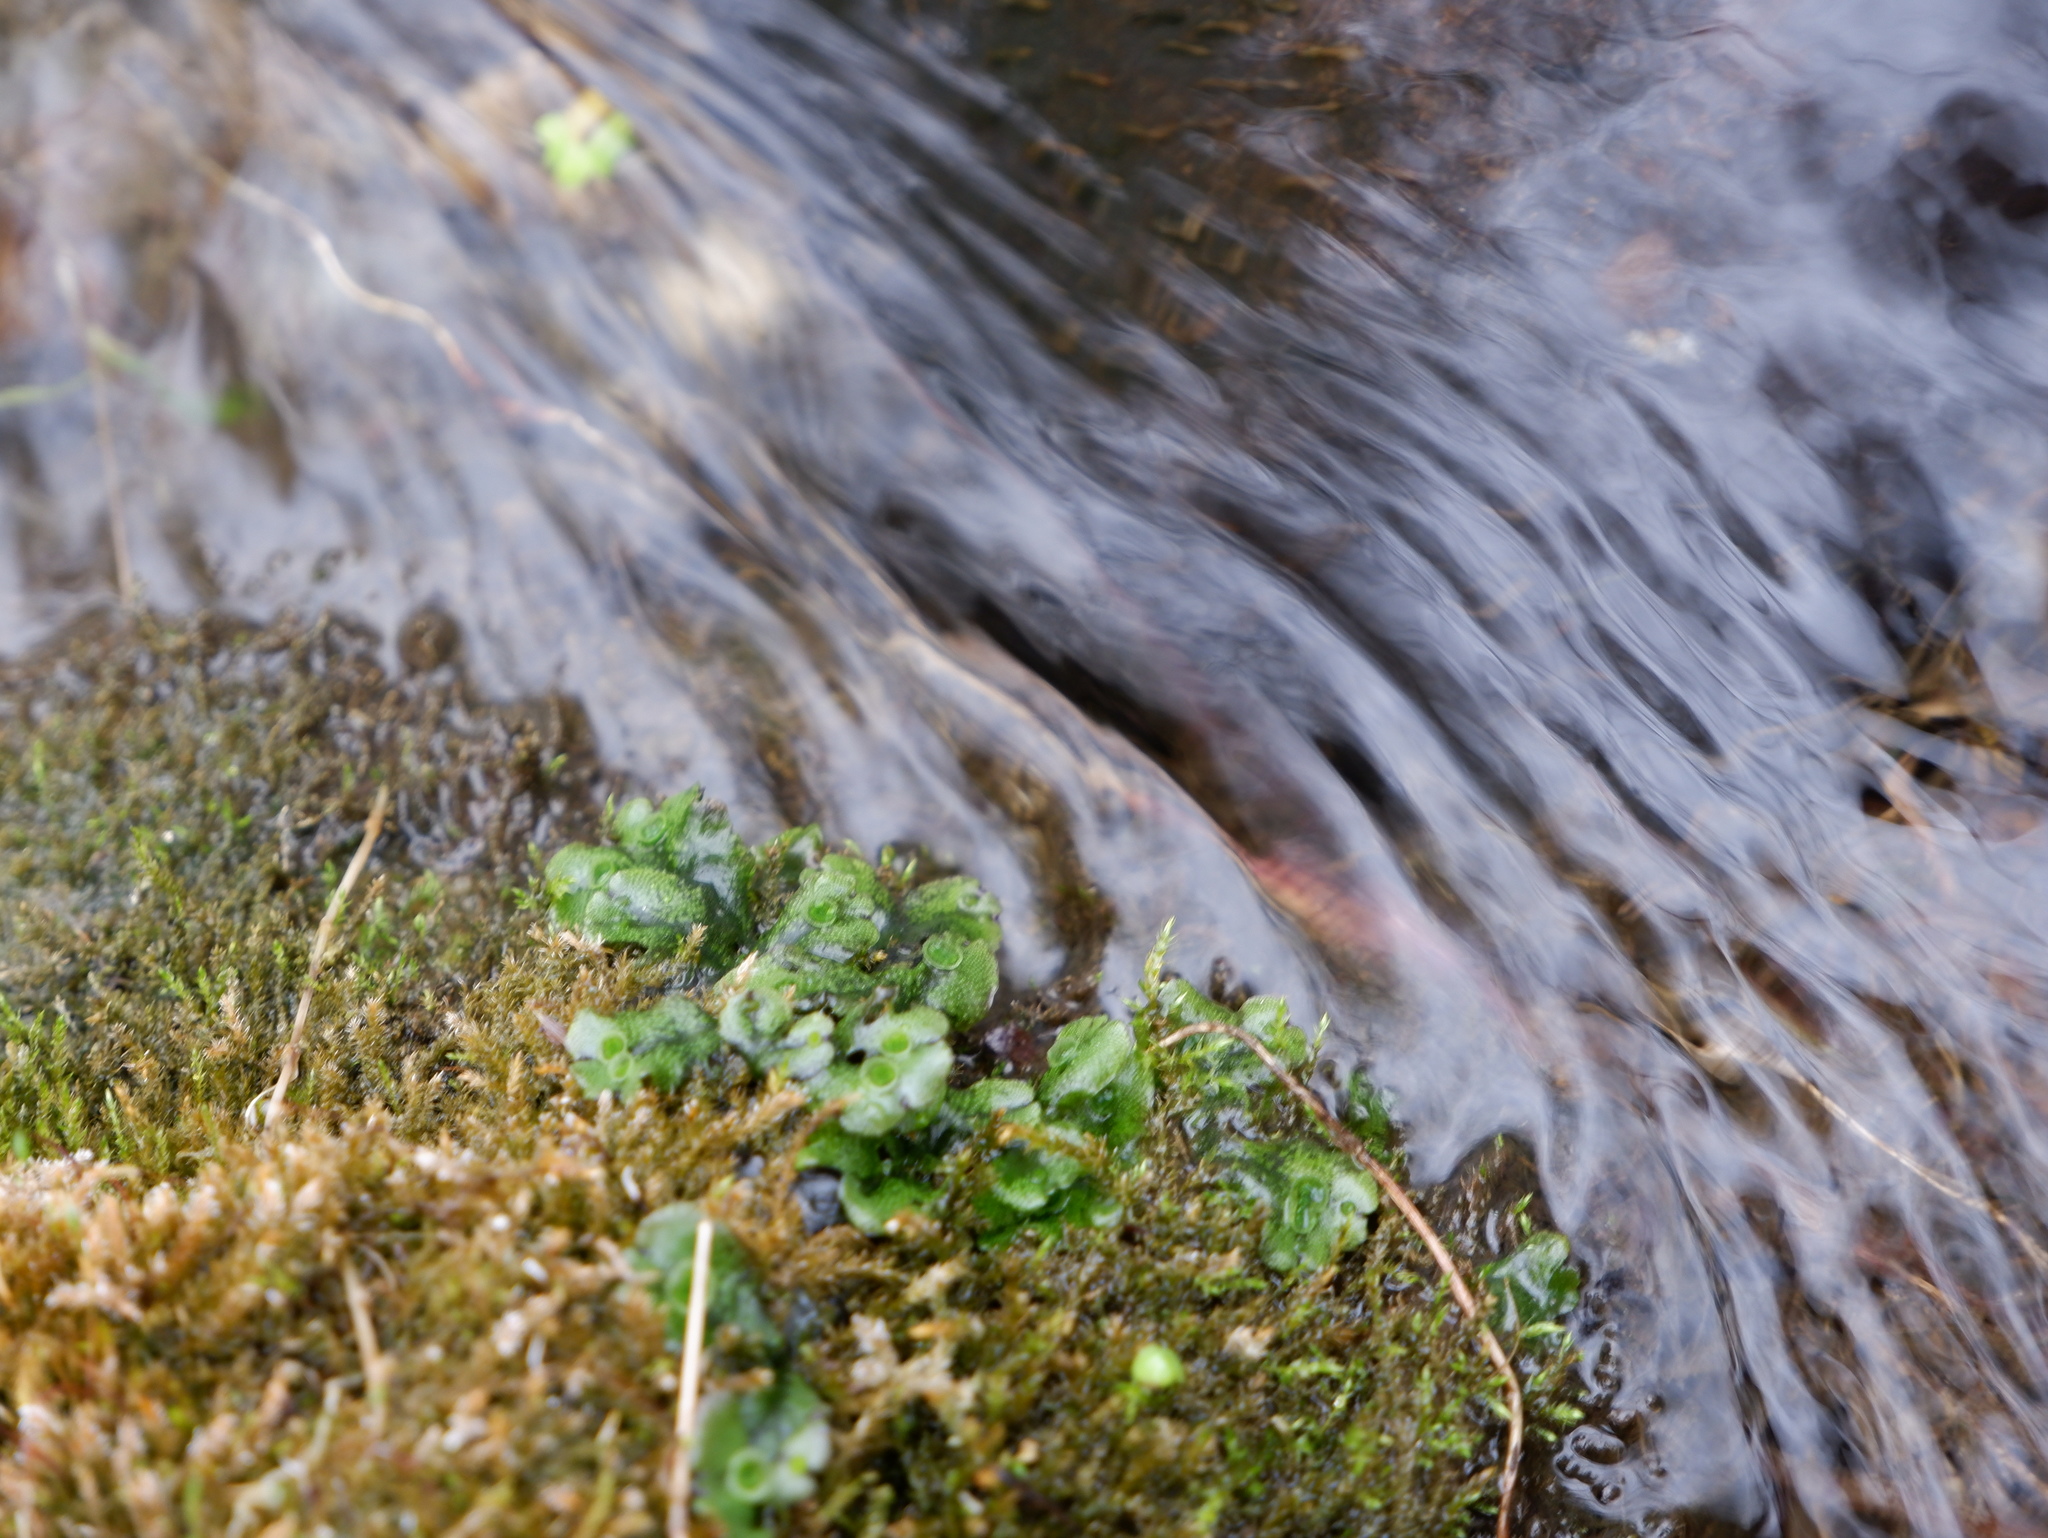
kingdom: Plantae
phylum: Marchantiophyta
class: Marchantiopsida
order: Marchantiales
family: Marchantiaceae
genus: Marchantia
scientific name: Marchantia polymorpha
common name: Common liverwort
